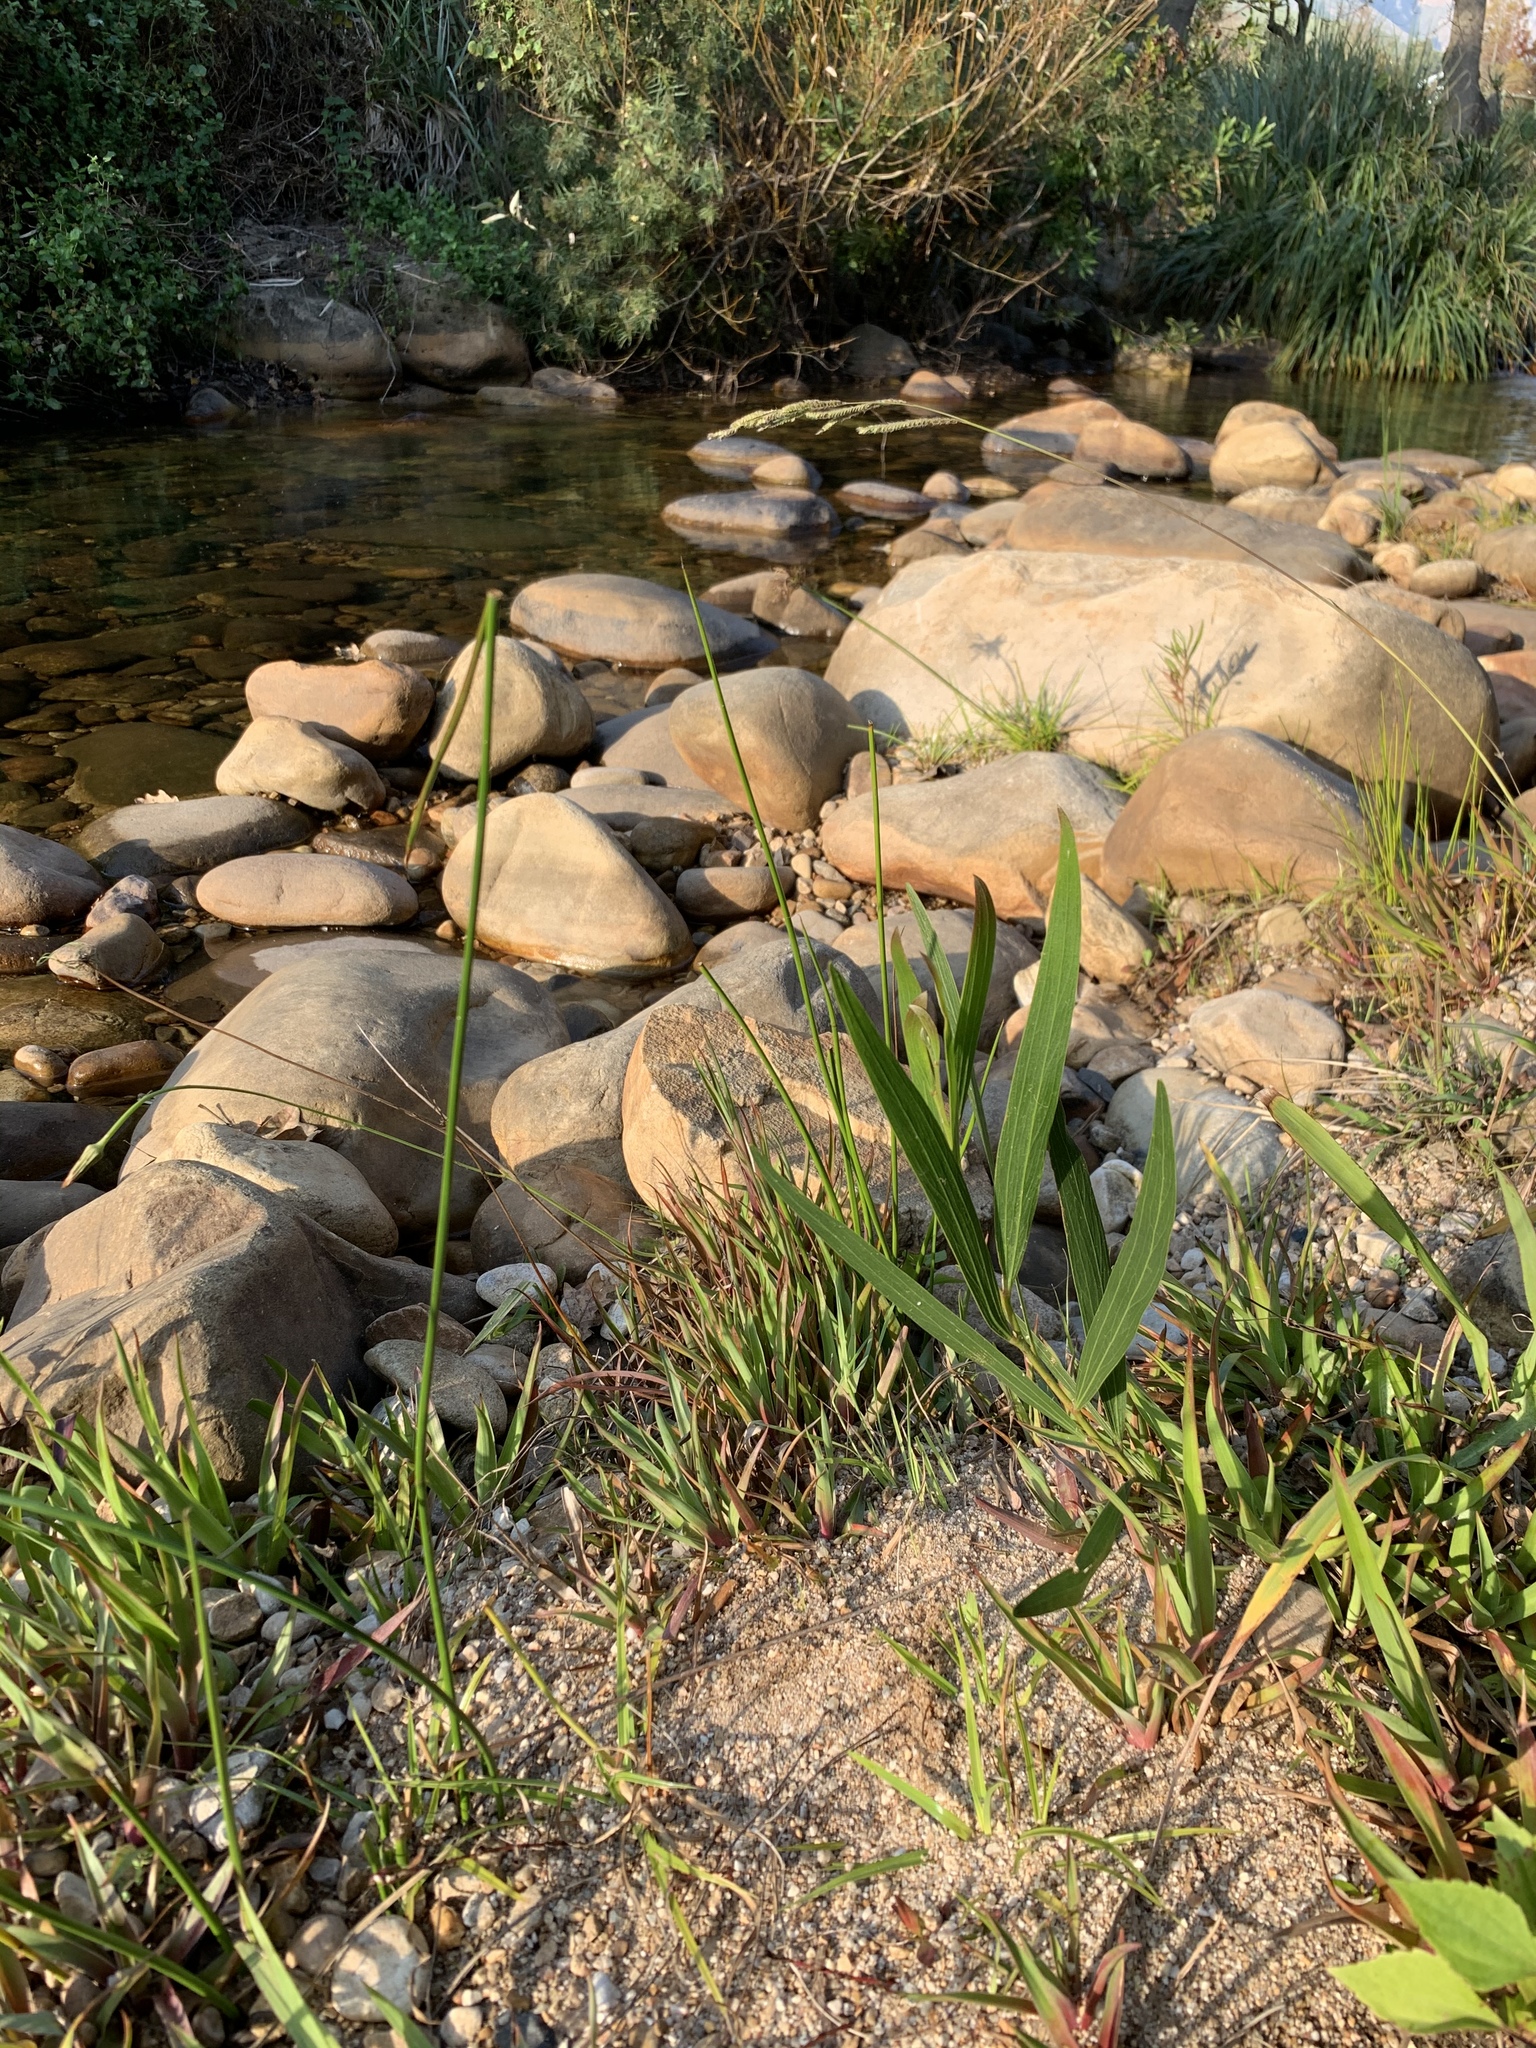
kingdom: Plantae
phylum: Tracheophyta
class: Magnoliopsida
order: Fabales
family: Fabaceae
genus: Acacia
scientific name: Acacia longifolia
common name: Sydney golden wattle
